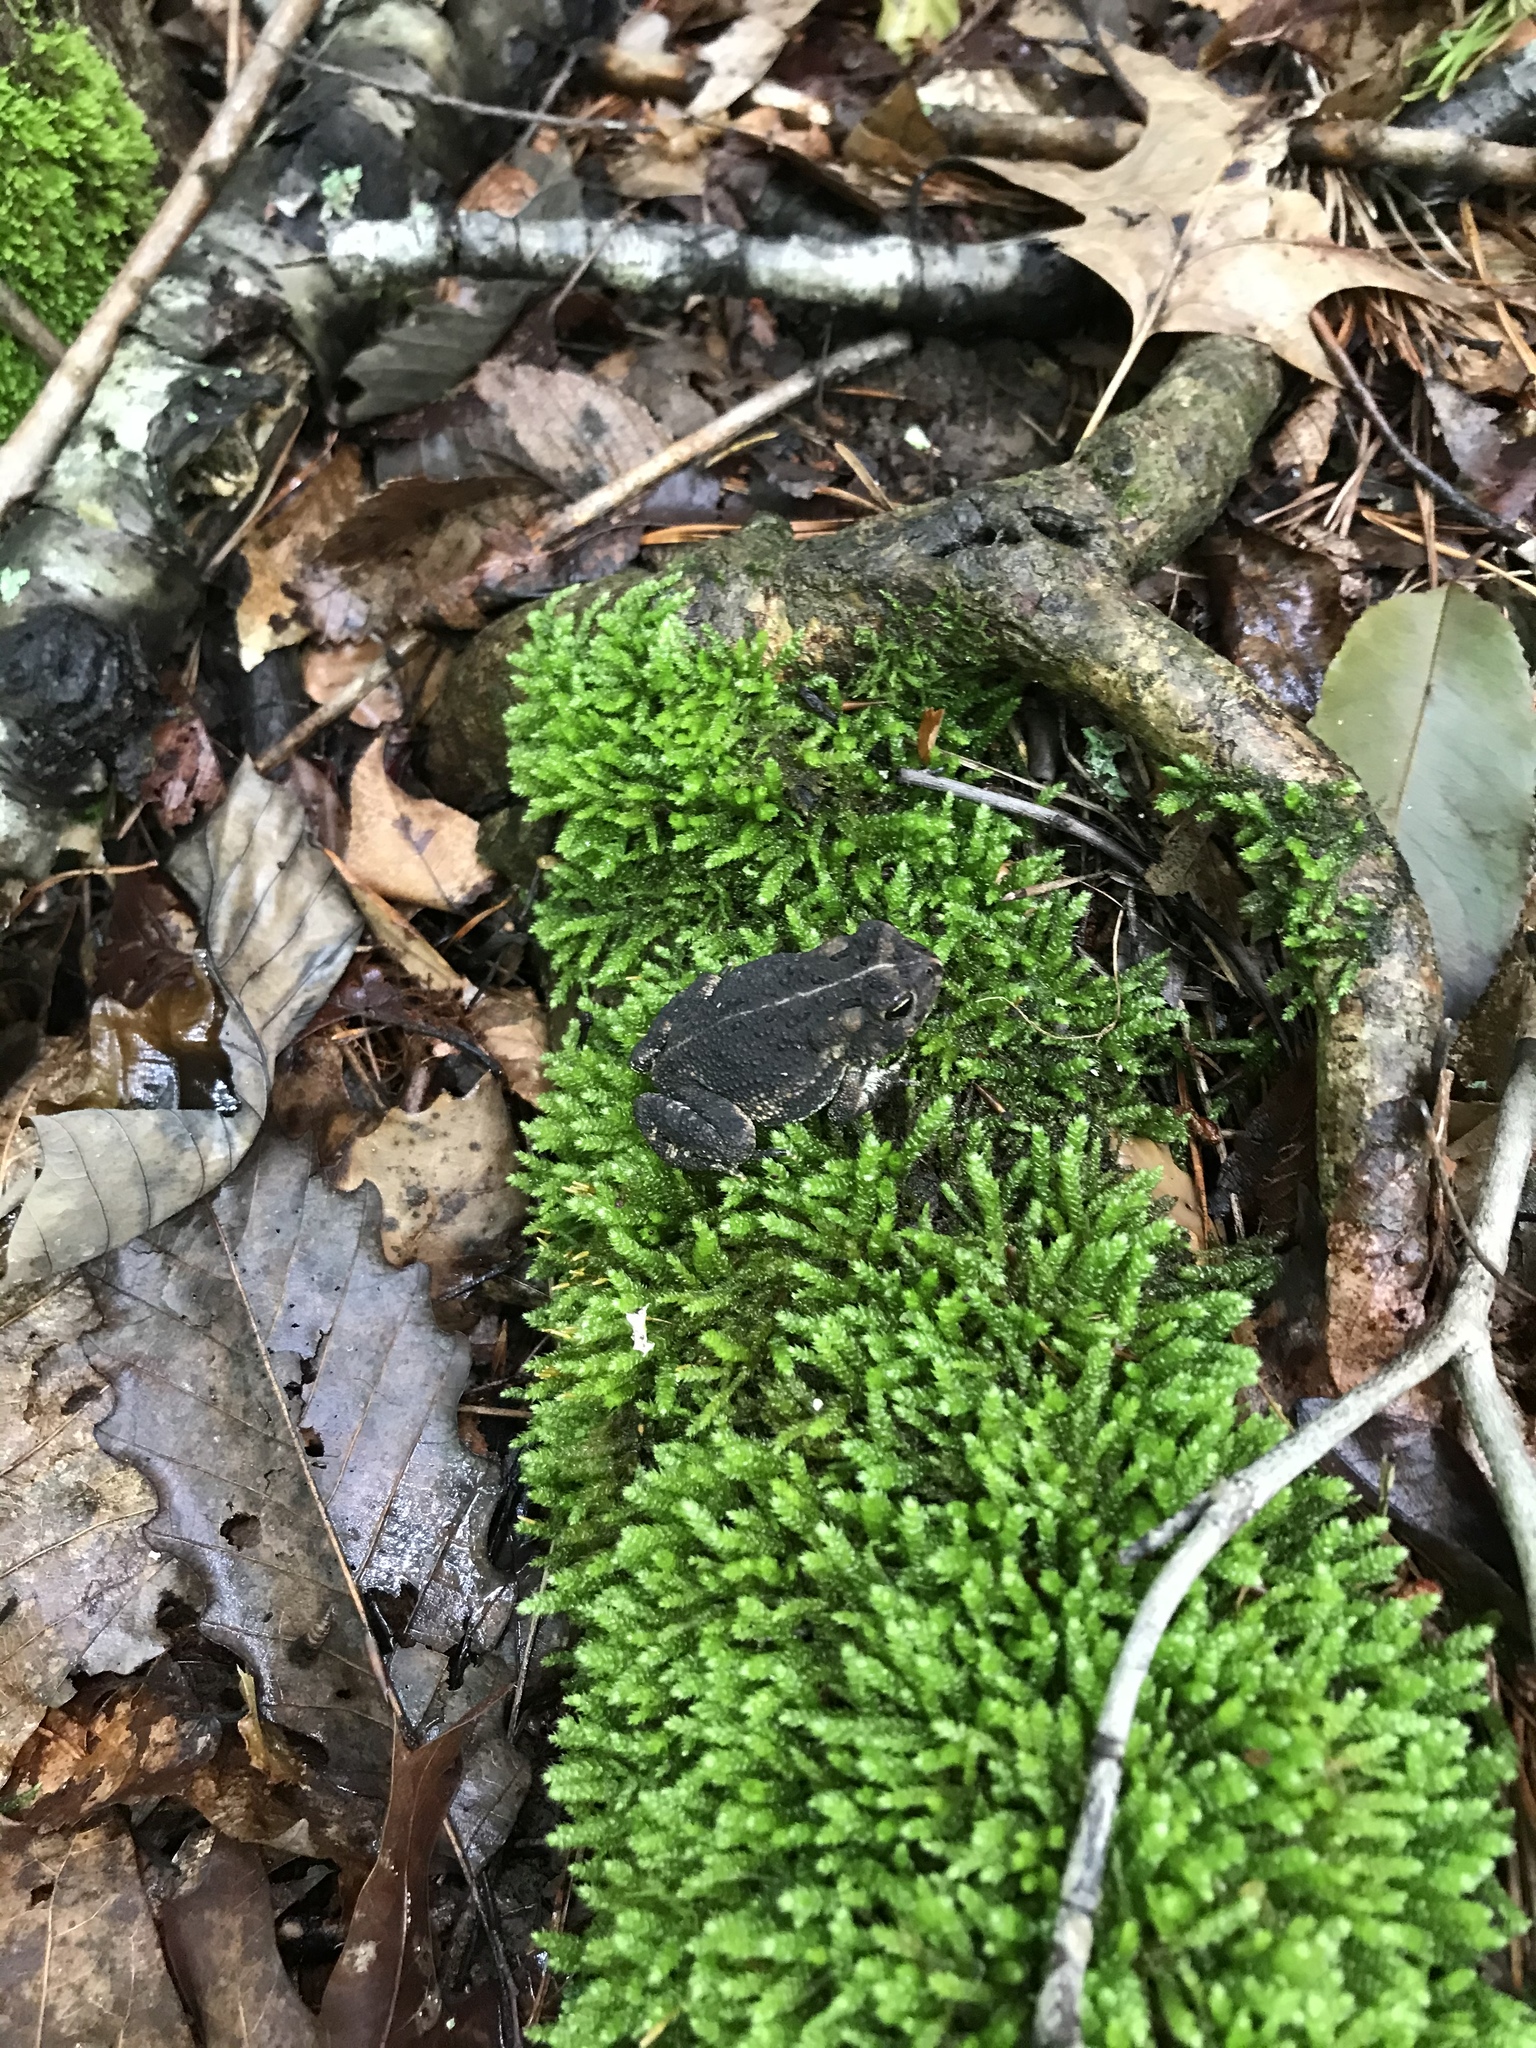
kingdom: Animalia
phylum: Chordata
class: Amphibia
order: Anura
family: Bufonidae
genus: Anaxyrus
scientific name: Anaxyrus americanus
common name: American toad
